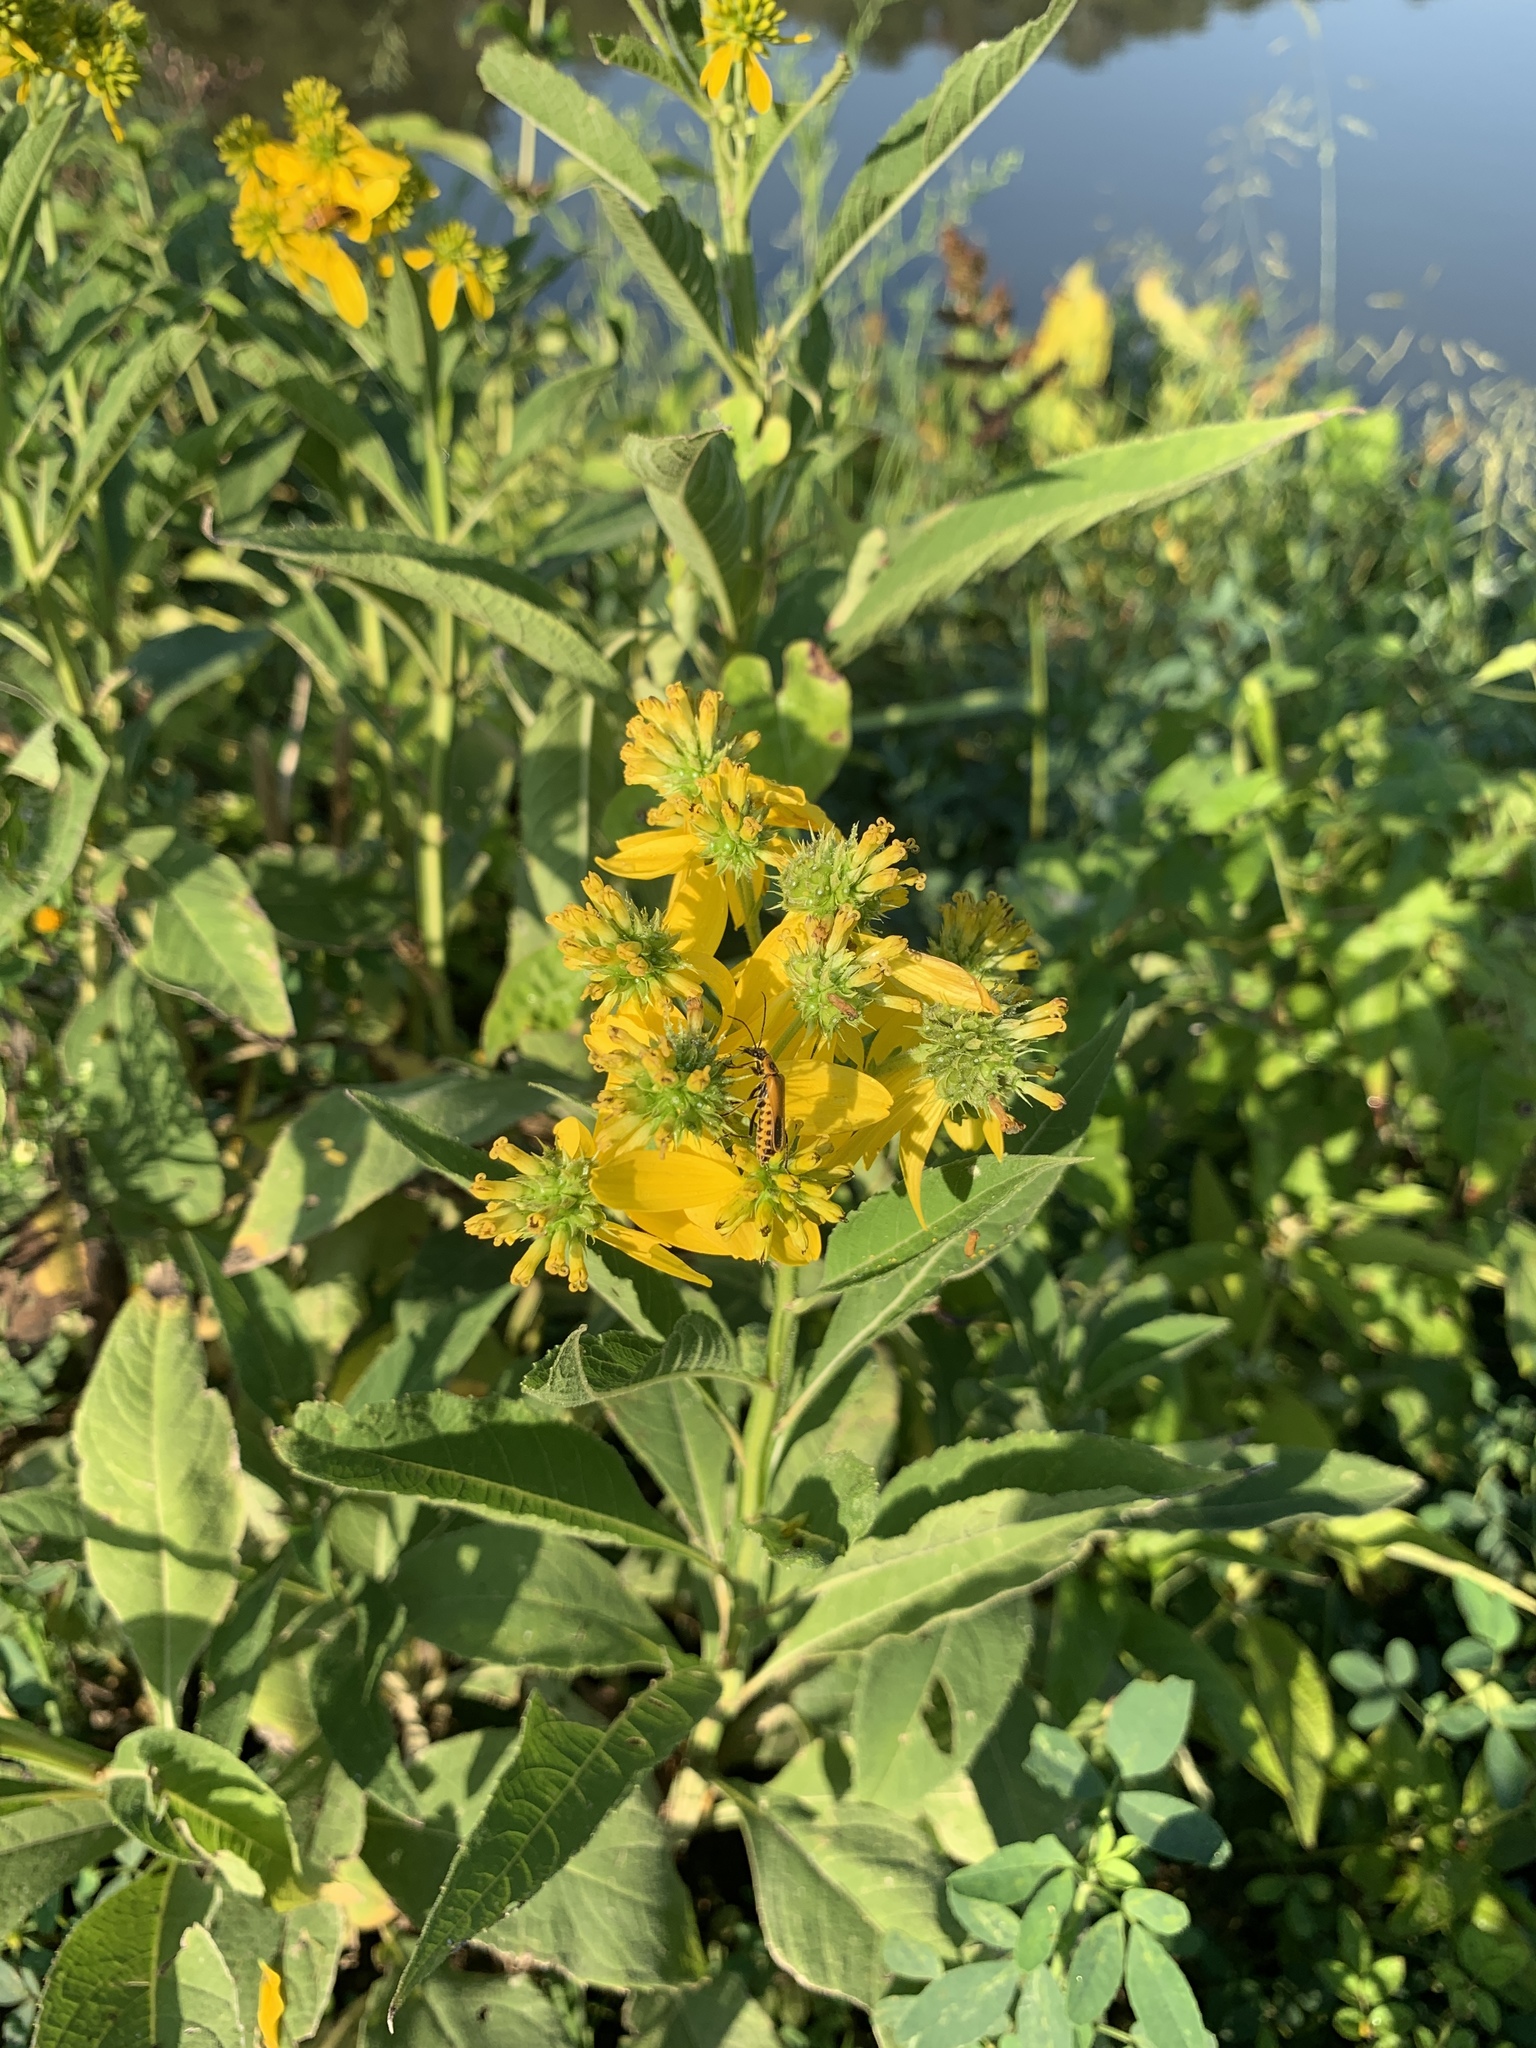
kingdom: Plantae
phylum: Tracheophyta
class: Magnoliopsida
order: Asterales
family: Asteraceae
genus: Verbesina
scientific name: Verbesina alternifolia
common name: Wingstem
